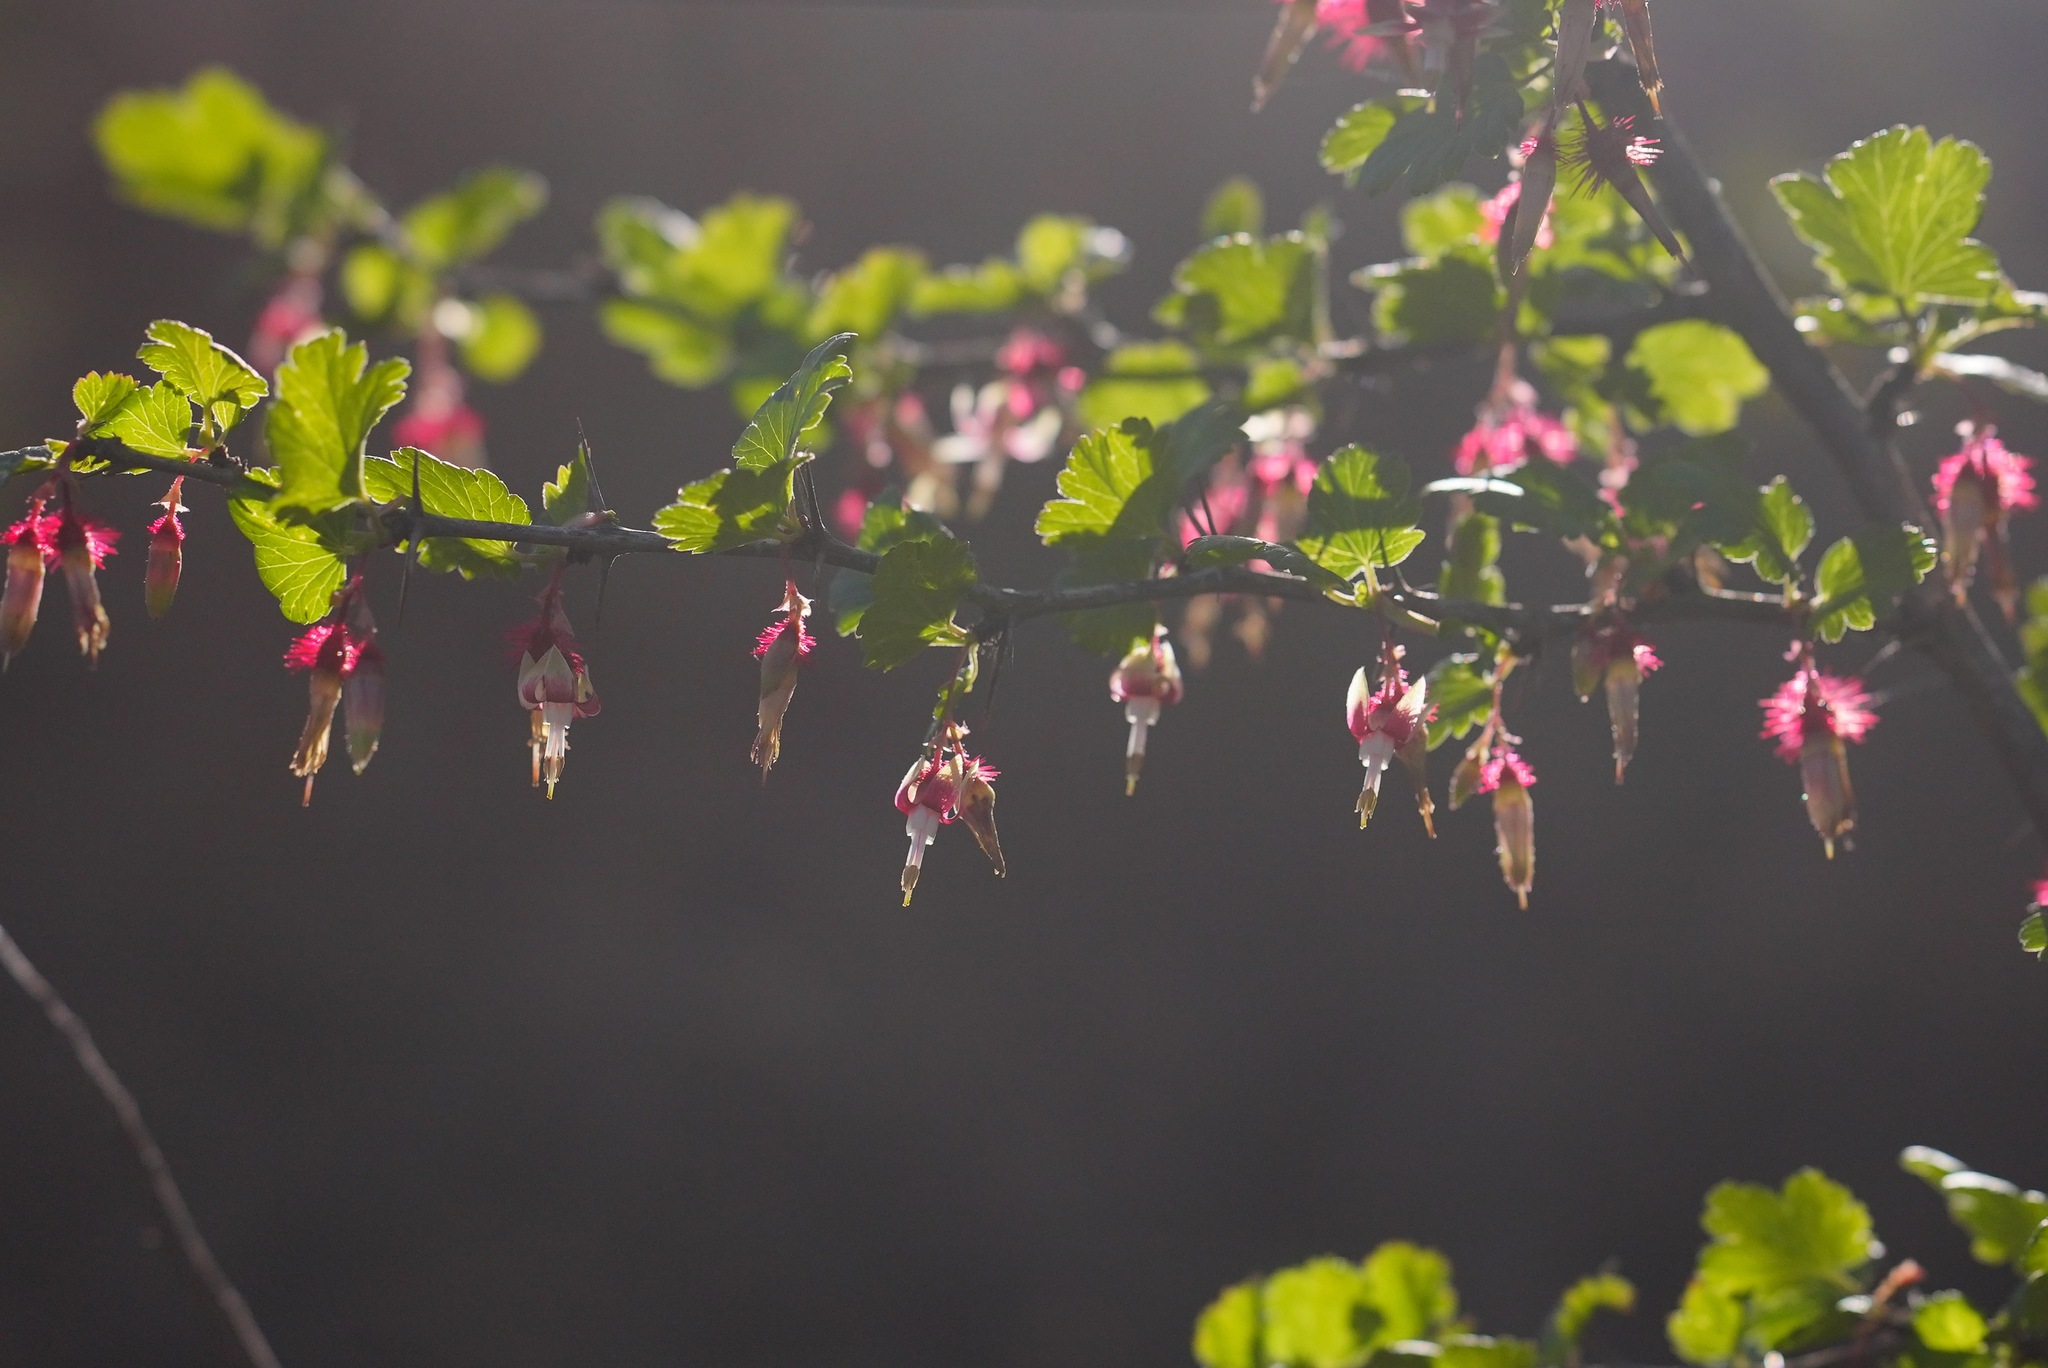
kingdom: Plantae
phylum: Tracheophyta
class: Magnoliopsida
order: Saxifragales
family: Grossulariaceae
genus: Ribes
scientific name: Ribes californicum
